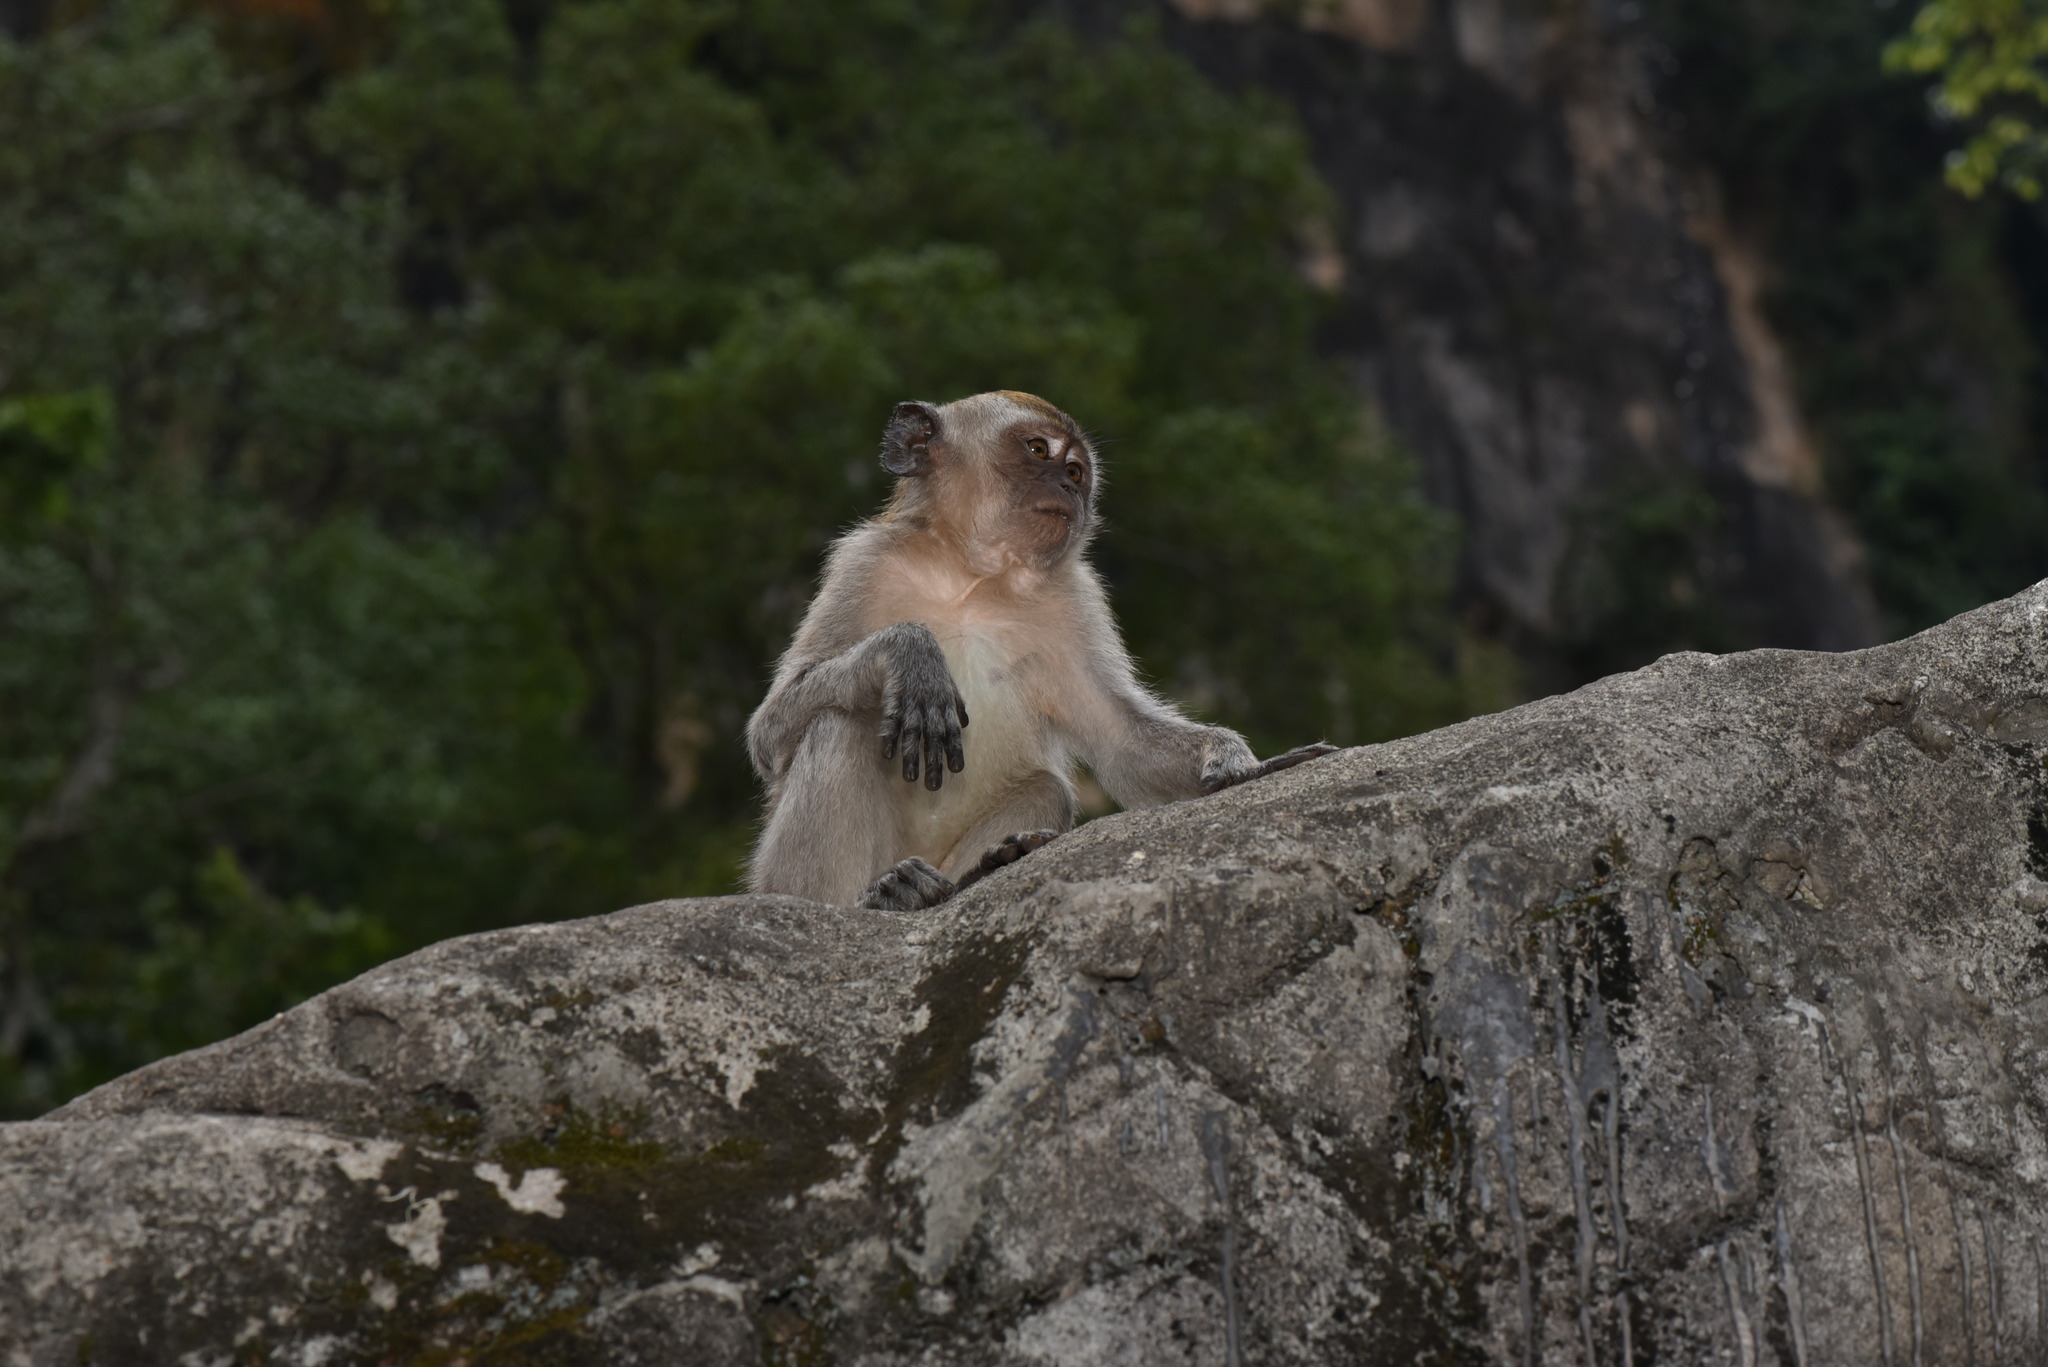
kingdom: Animalia
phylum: Chordata
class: Mammalia
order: Primates
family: Cercopithecidae
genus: Macaca
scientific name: Macaca fascicularis
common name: Crab-eating macaque
